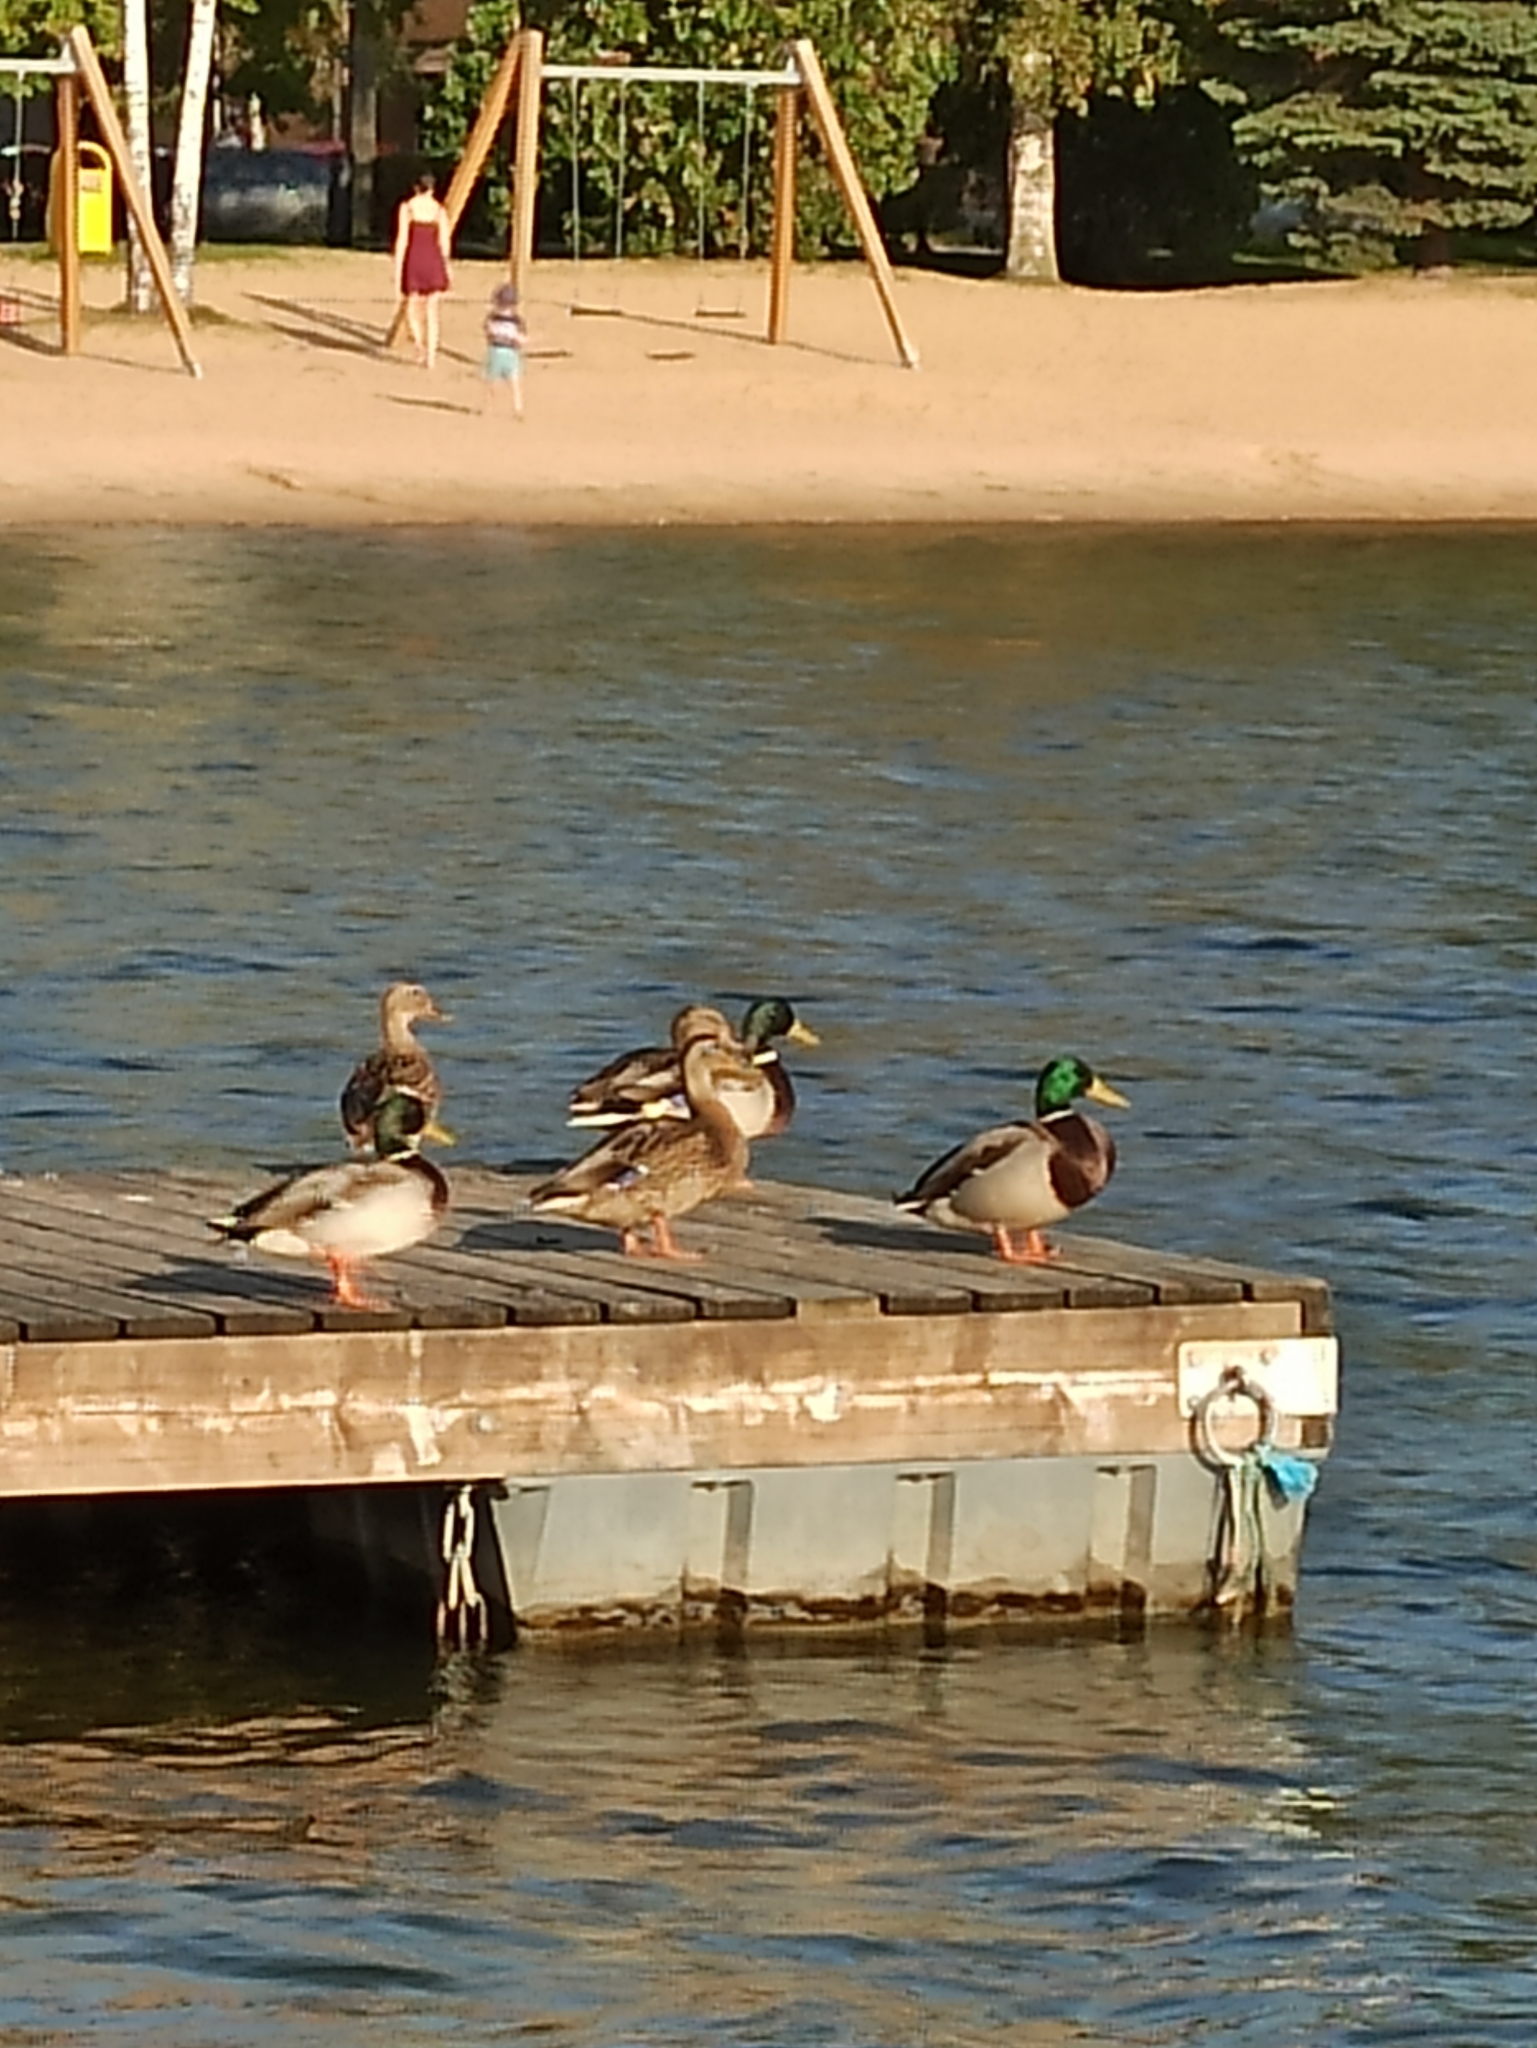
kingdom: Animalia
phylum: Chordata
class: Aves
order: Anseriformes
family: Anatidae
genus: Anas
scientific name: Anas platyrhynchos
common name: Mallard
